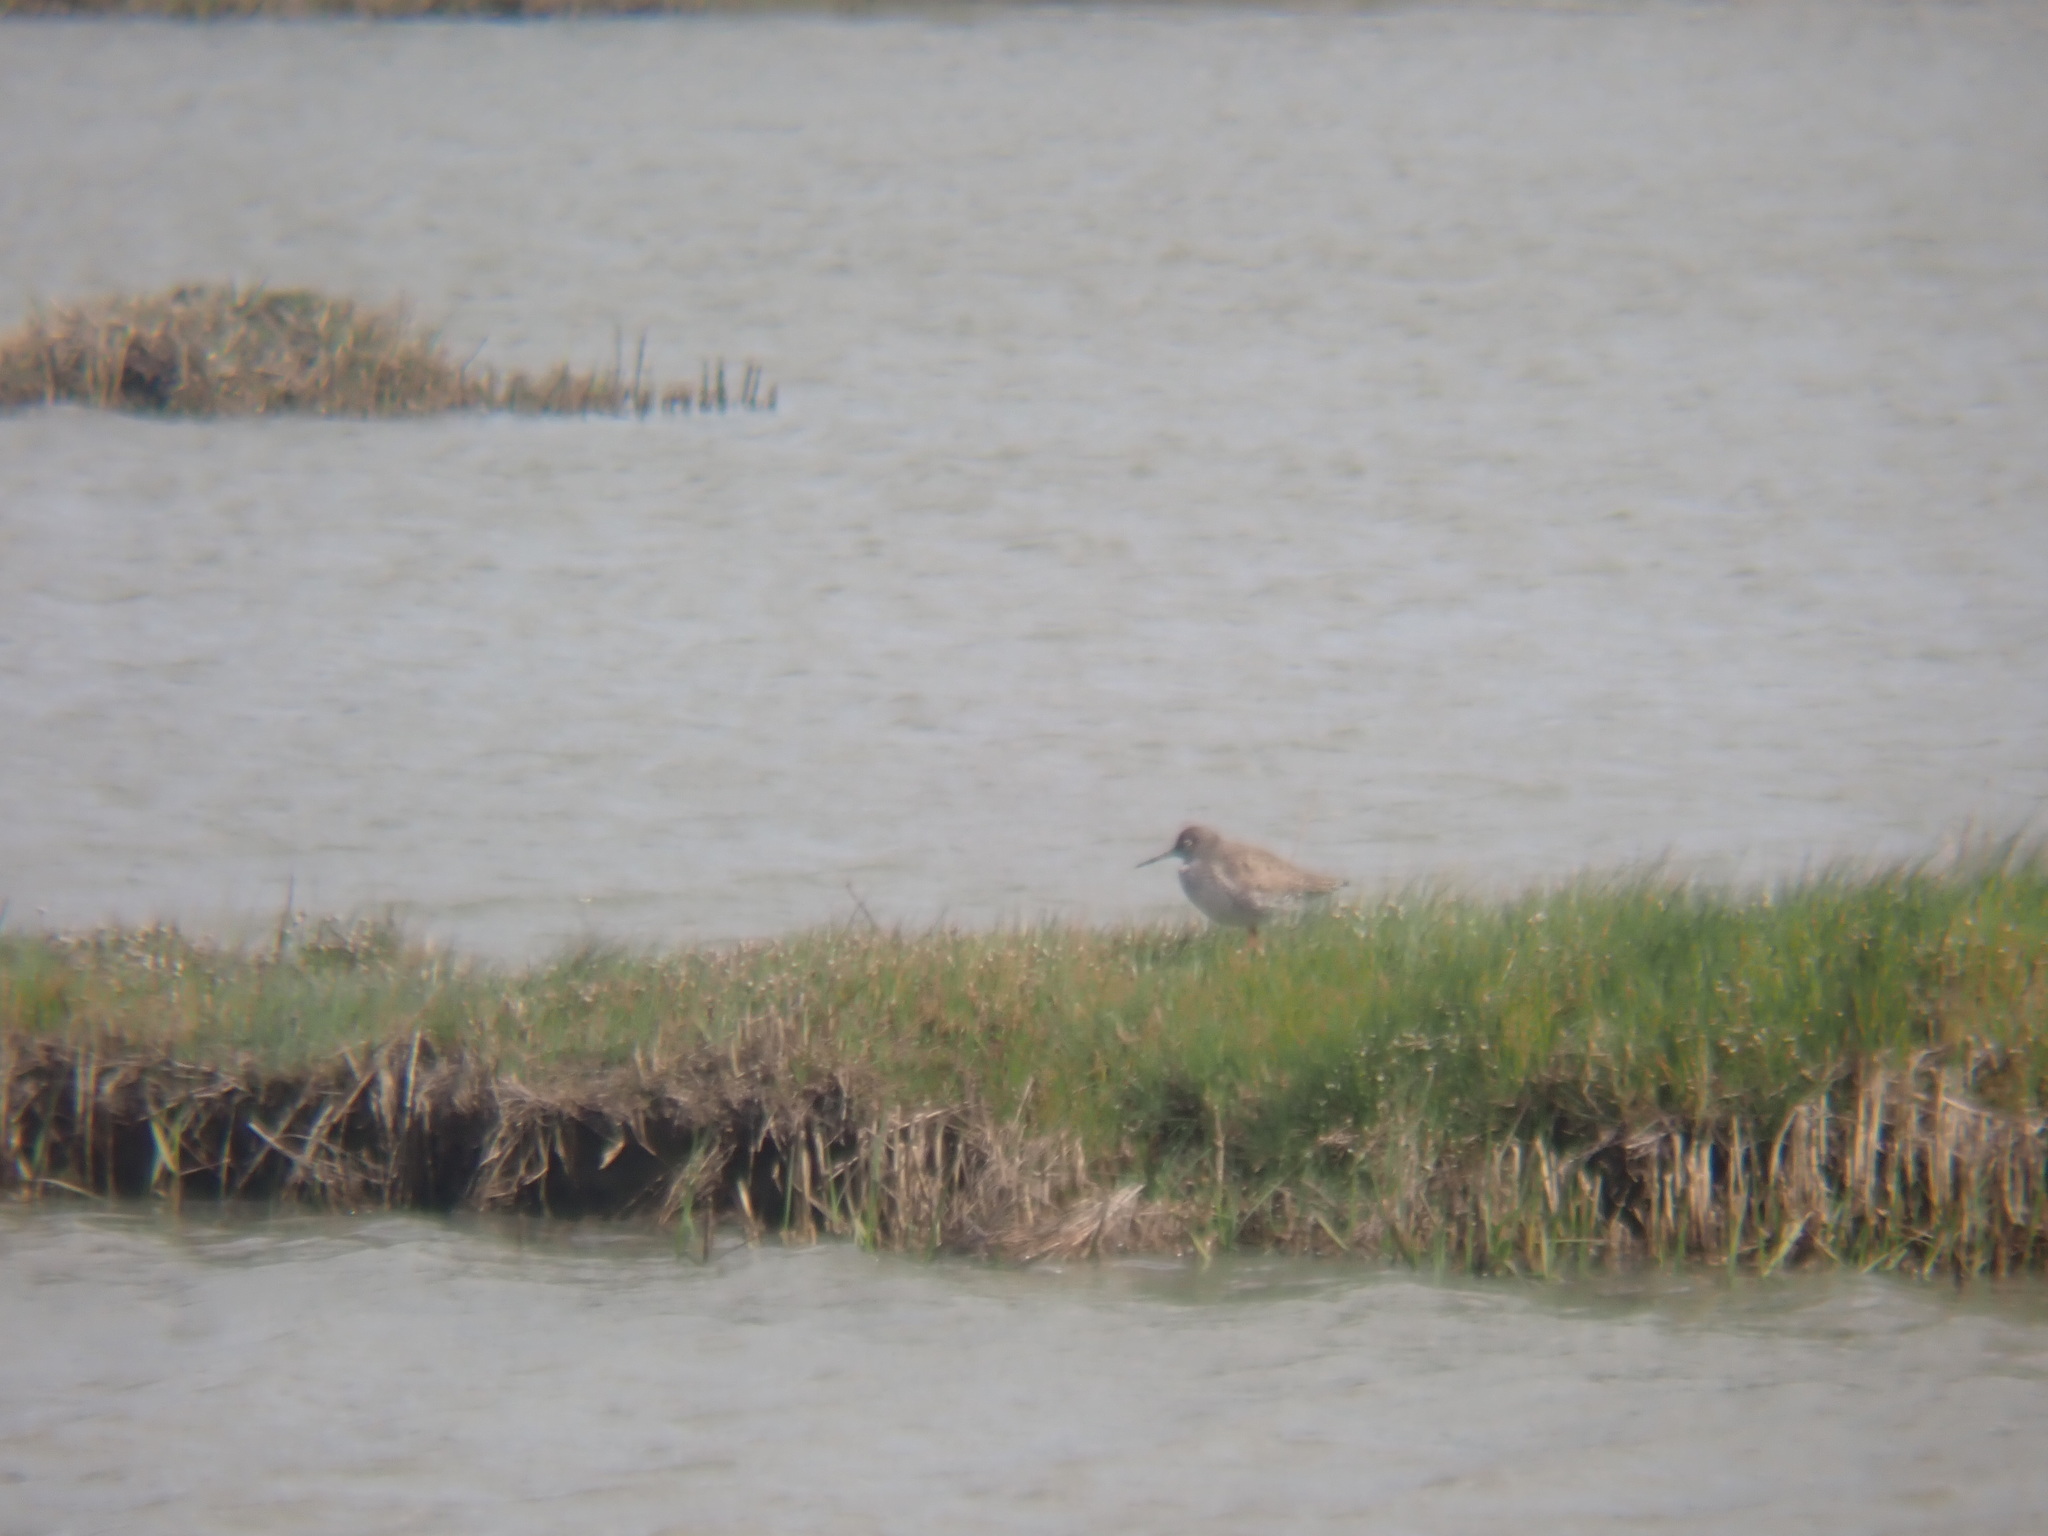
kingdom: Animalia
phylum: Chordata
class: Aves
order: Charadriiformes
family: Scolopacidae
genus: Tringa
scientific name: Tringa totanus
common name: Common redshank
